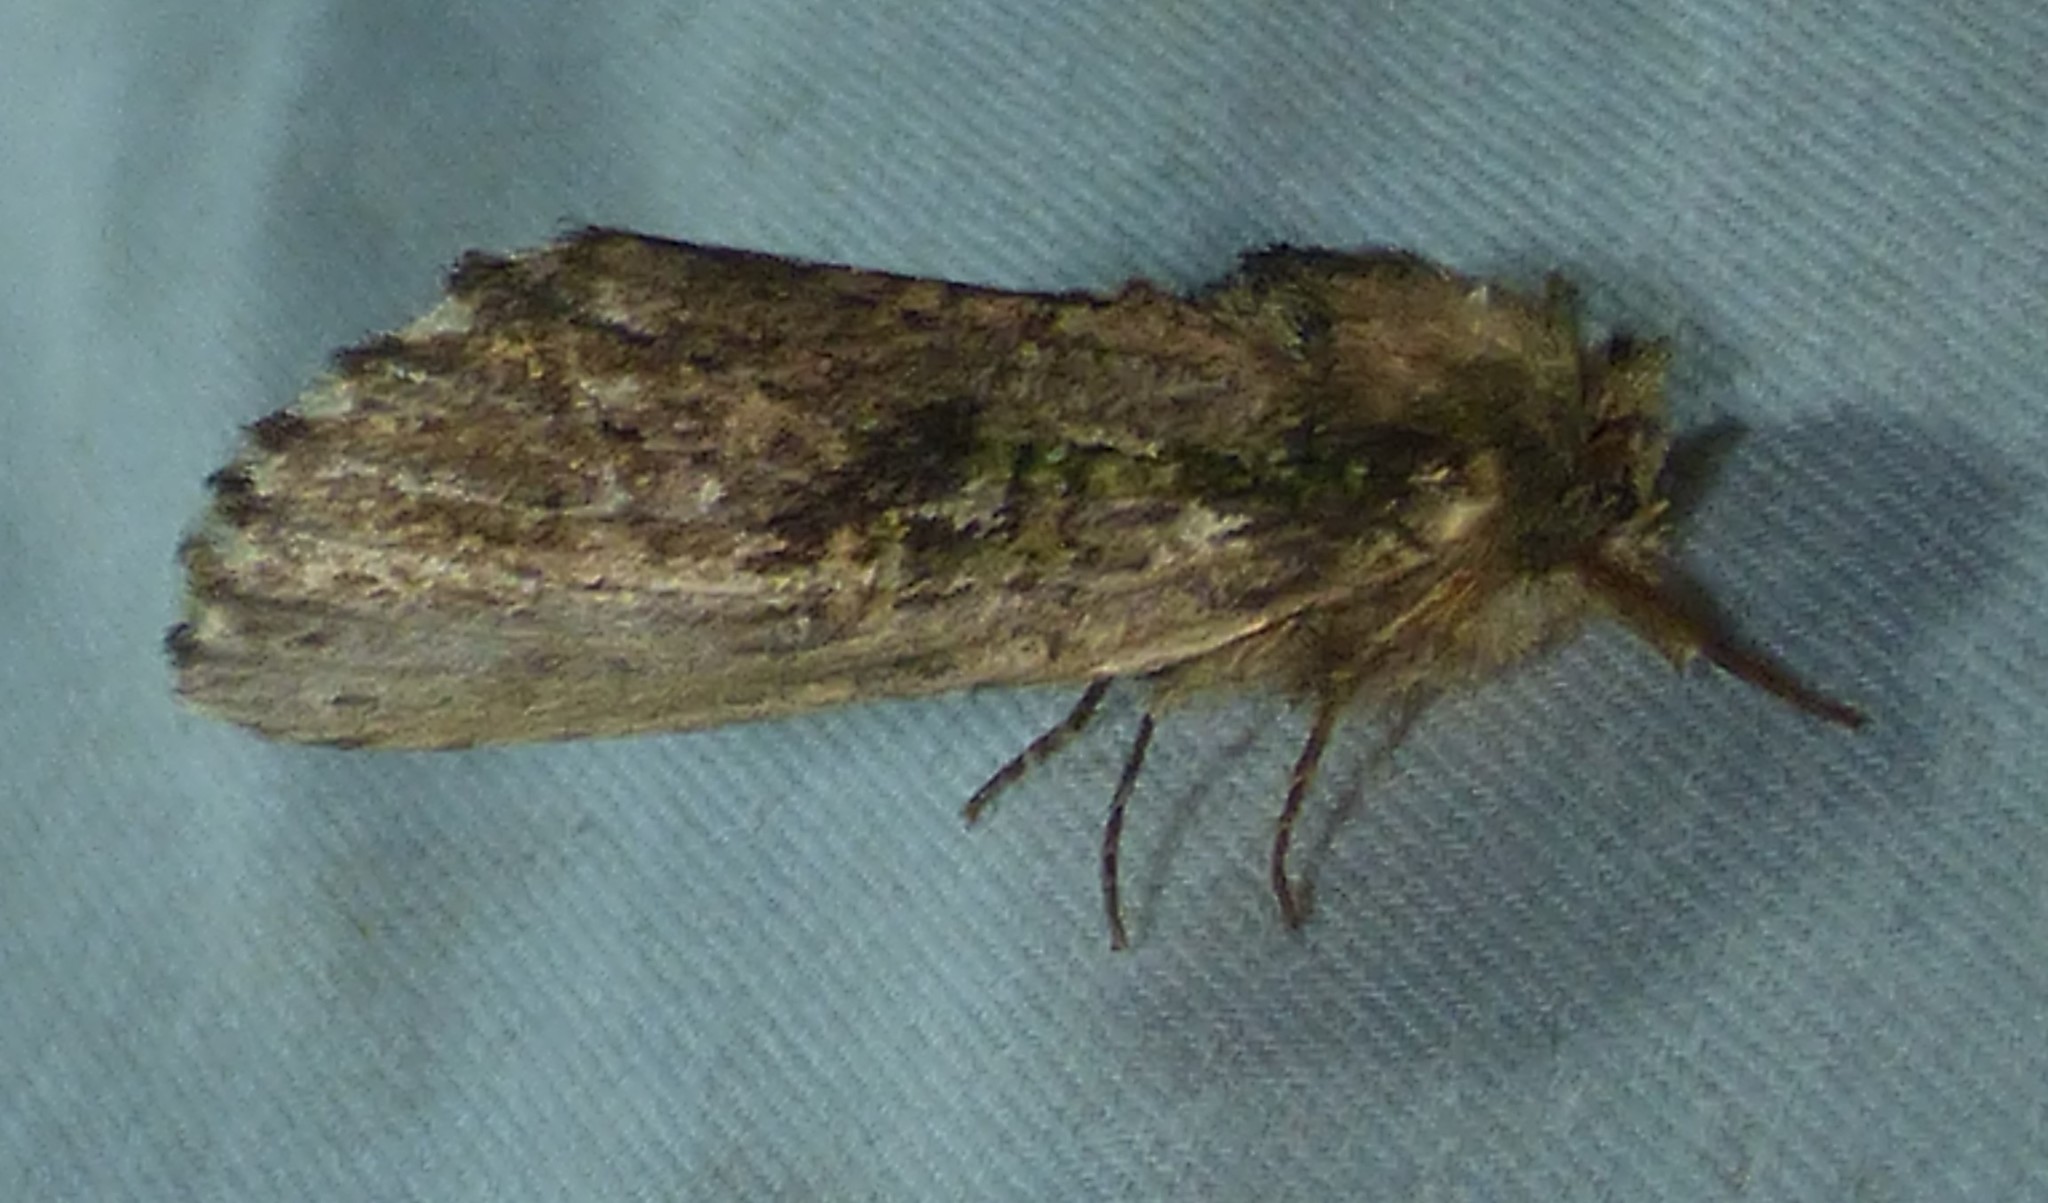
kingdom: Animalia
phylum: Arthropoda
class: Insecta
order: Lepidoptera
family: Notodontidae
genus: Schizura
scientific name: Schizura ipomaeae
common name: Morning-glory prominent
